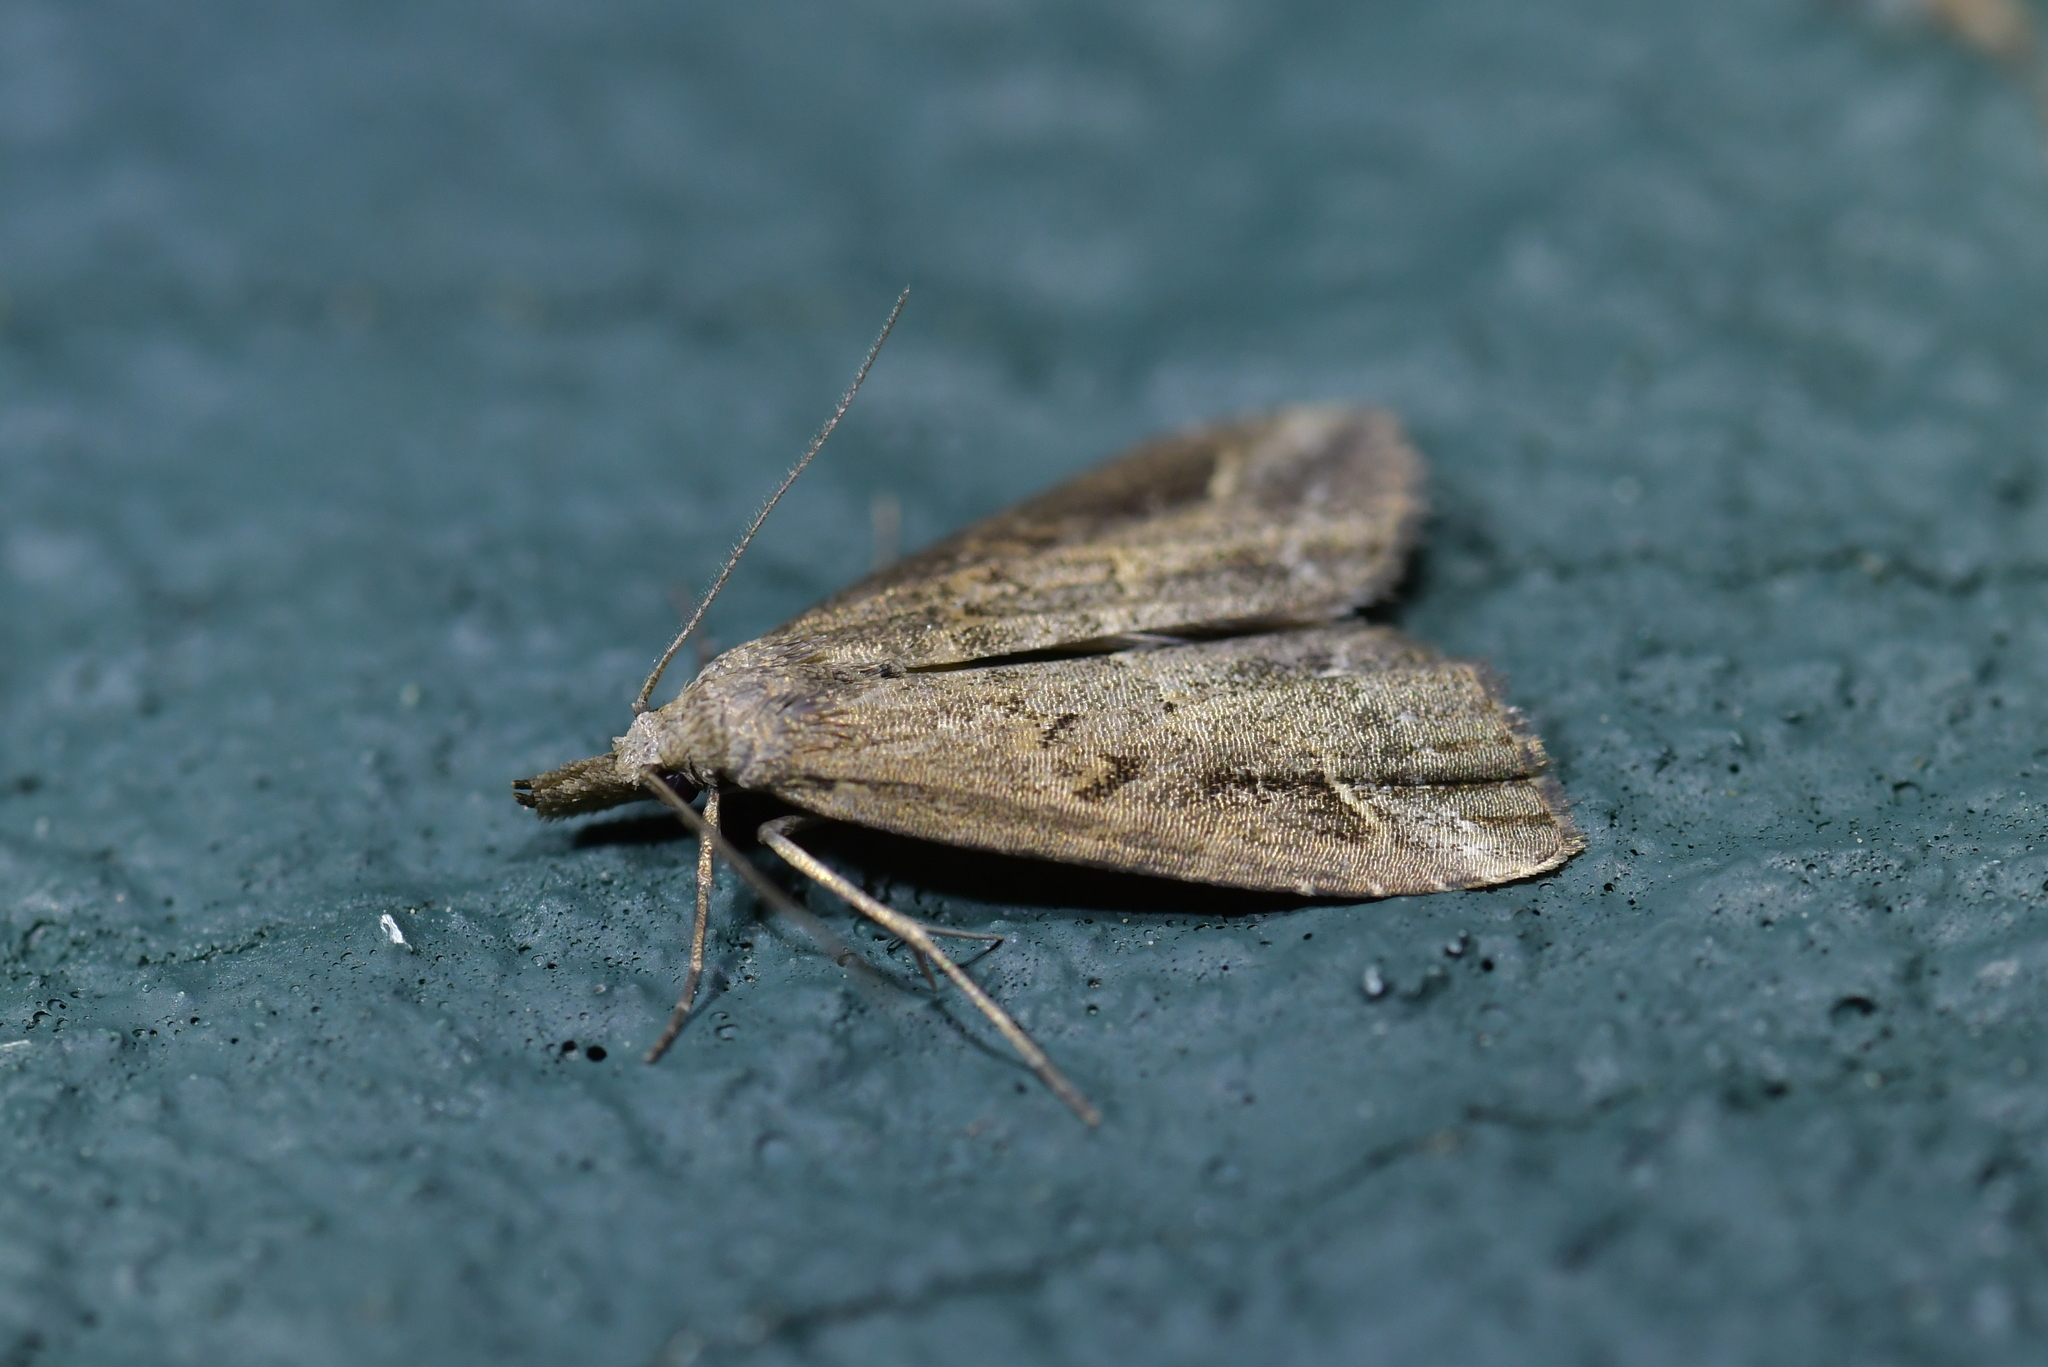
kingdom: Animalia
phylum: Arthropoda
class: Insecta
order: Lepidoptera
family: Erebidae
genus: Schrankia
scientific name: Schrankia costaestrigalis
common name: Pinion-streaked snout
